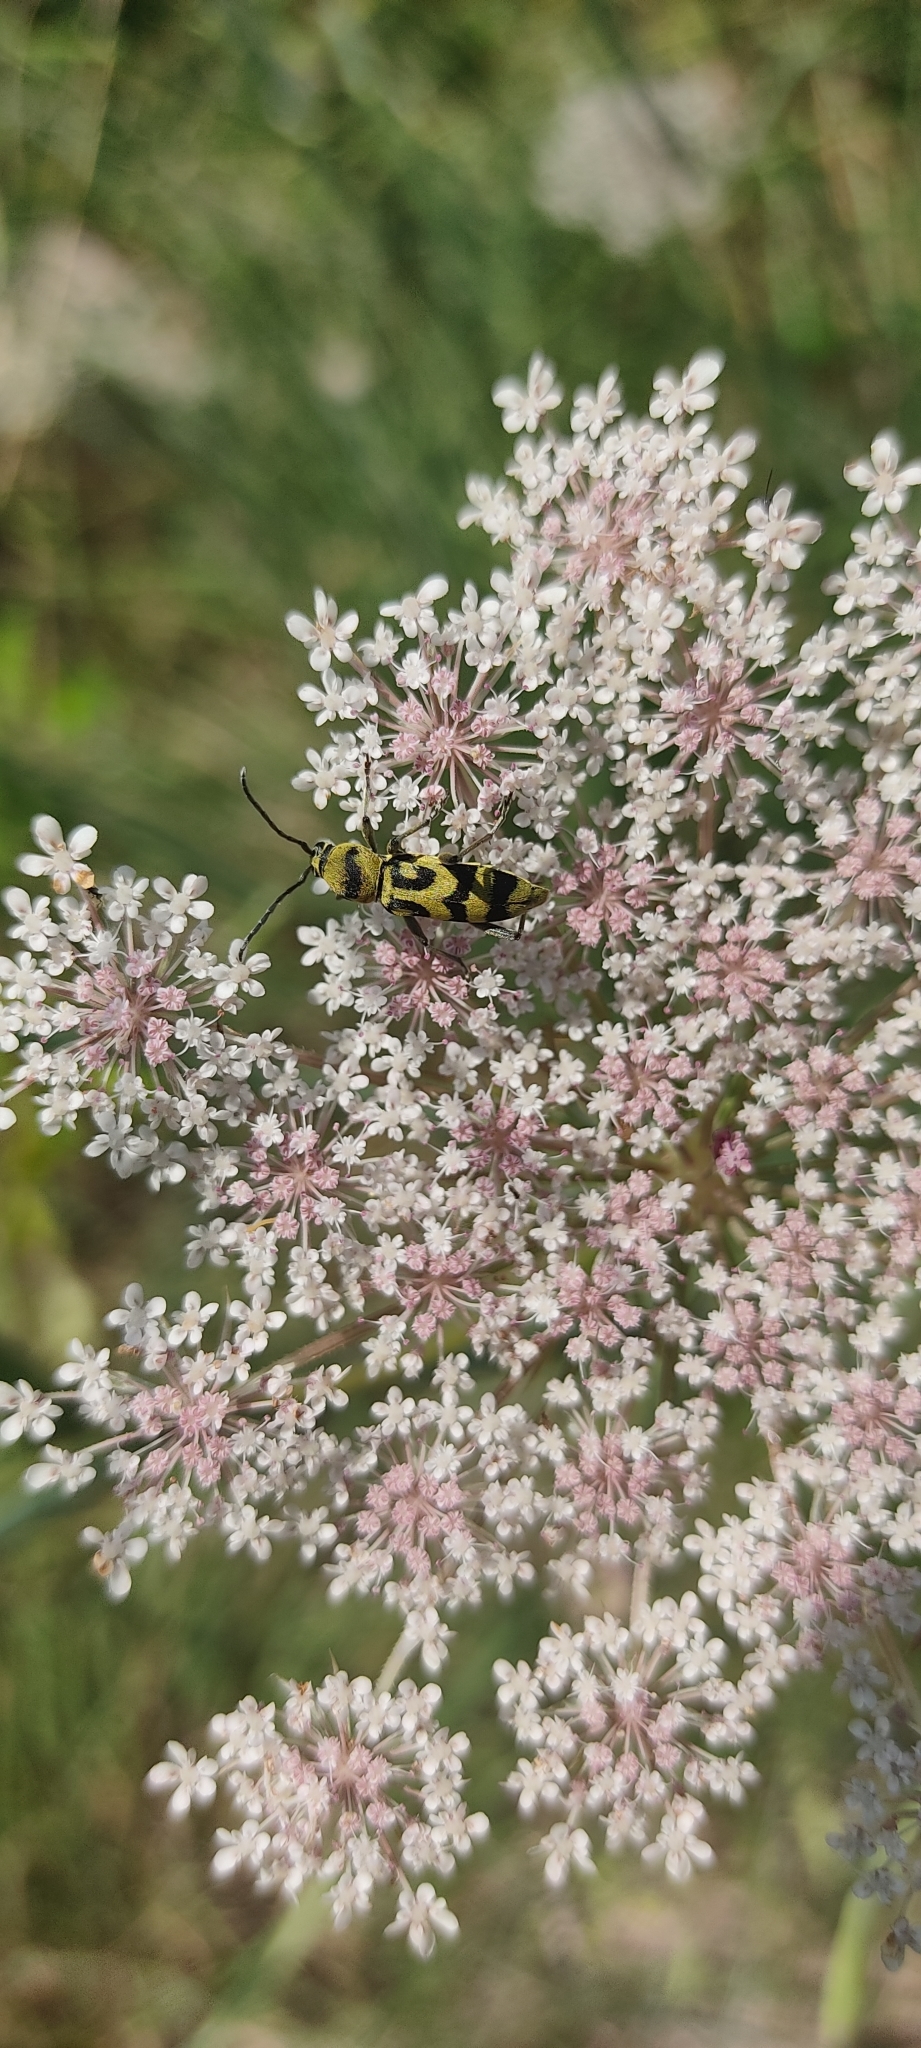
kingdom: Animalia
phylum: Arthropoda
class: Insecta
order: Coleoptera
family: Cerambycidae
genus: Chlorophorus
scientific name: Chlorophorus varius
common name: Grape wood borer
